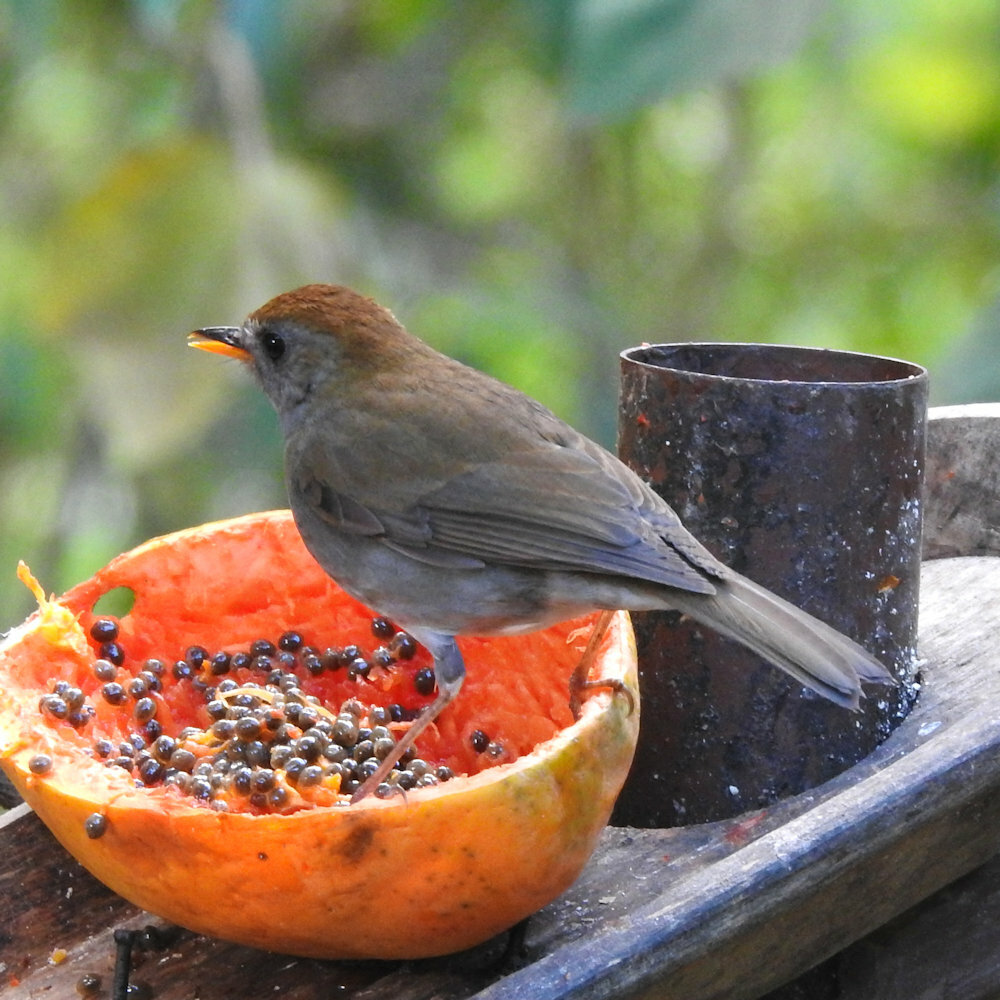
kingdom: Animalia
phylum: Chordata
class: Aves
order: Passeriformes
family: Turdidae
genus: Catharus
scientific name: Catharus frantzii
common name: Ruddy-capped nightingale-thrush
